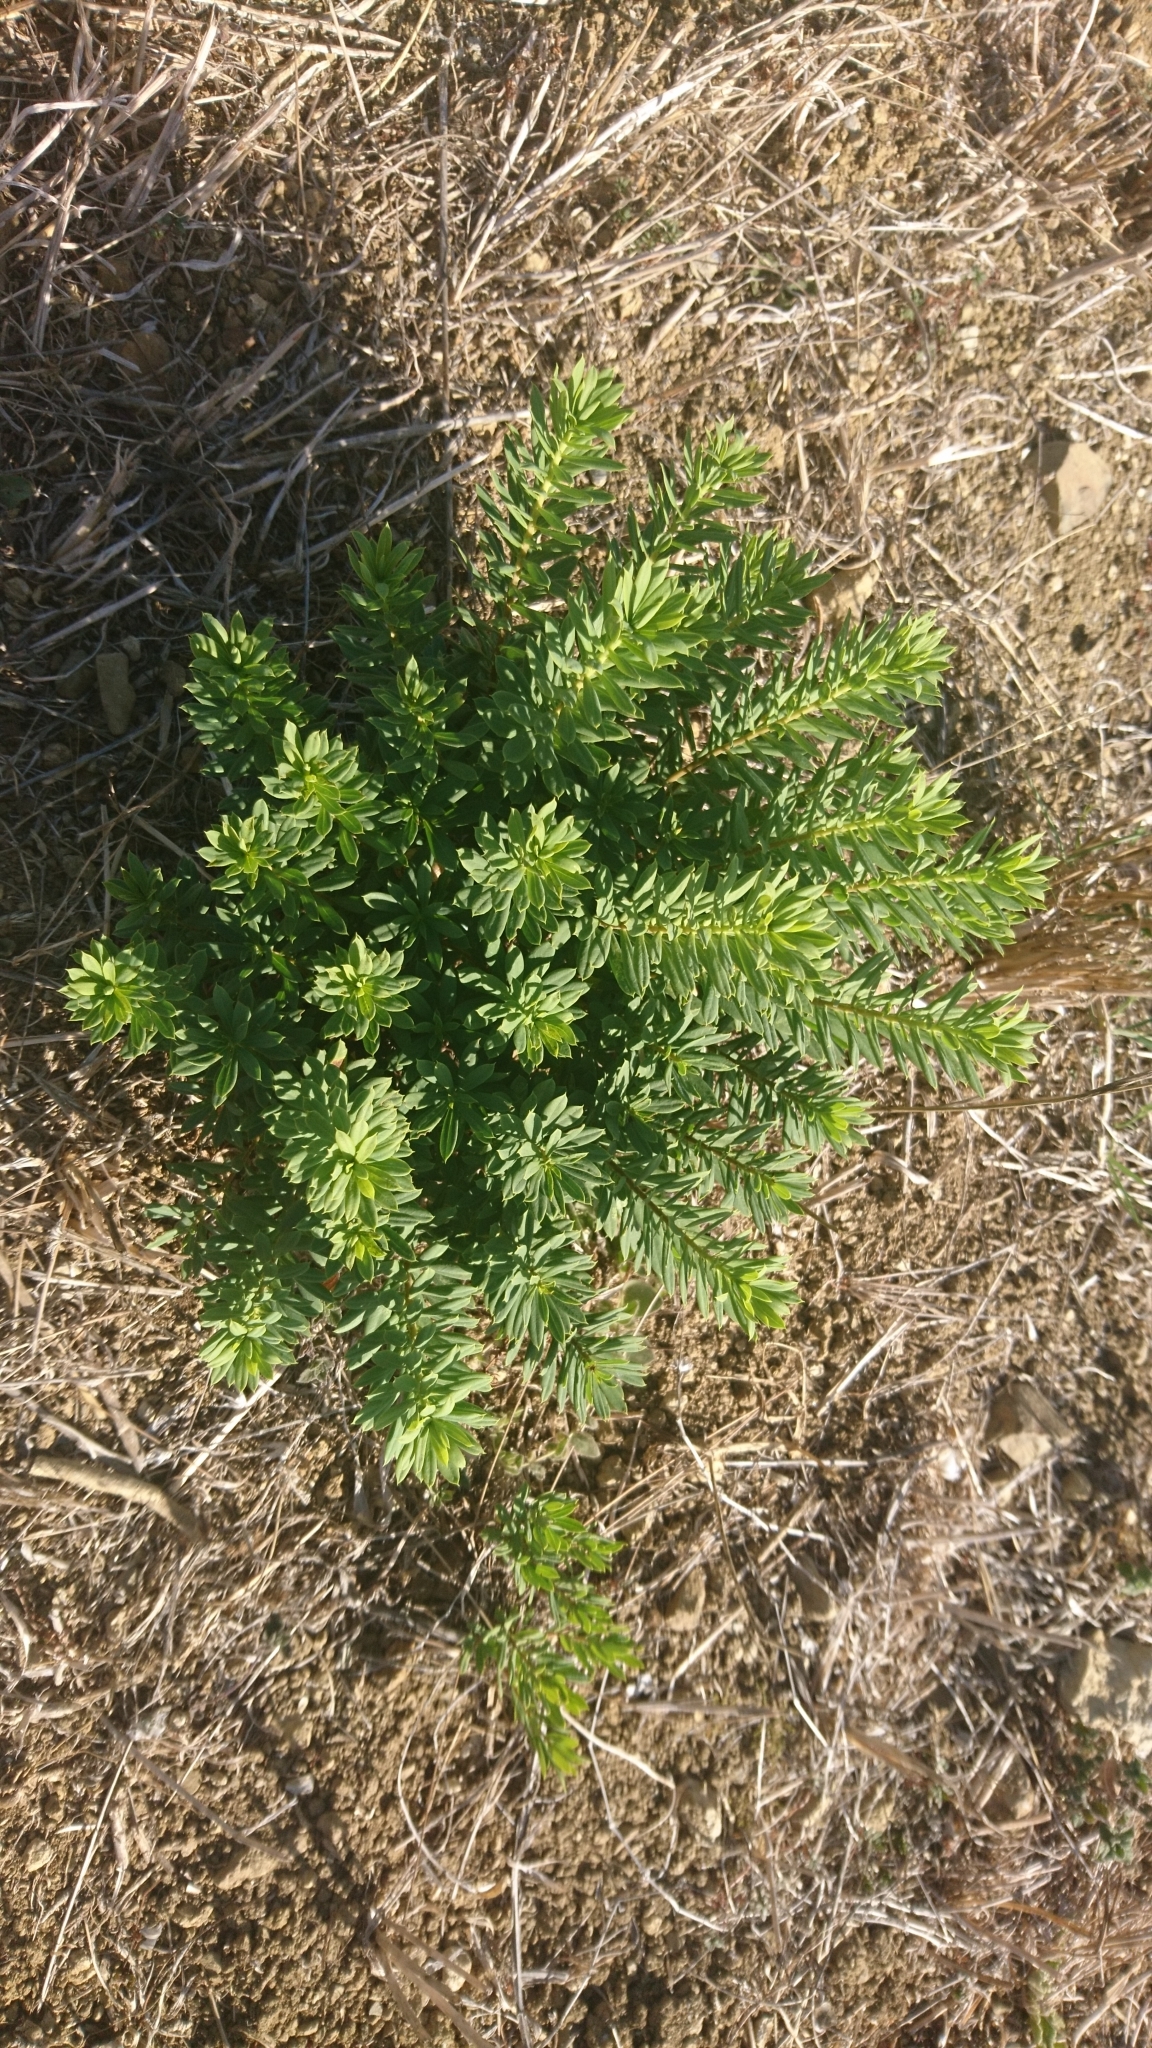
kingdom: Plantae
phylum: Tracheophyta
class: Magnoliopsida
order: Malvales
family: Thymelaeaceae
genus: Daphne
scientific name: Daphne gnidium
